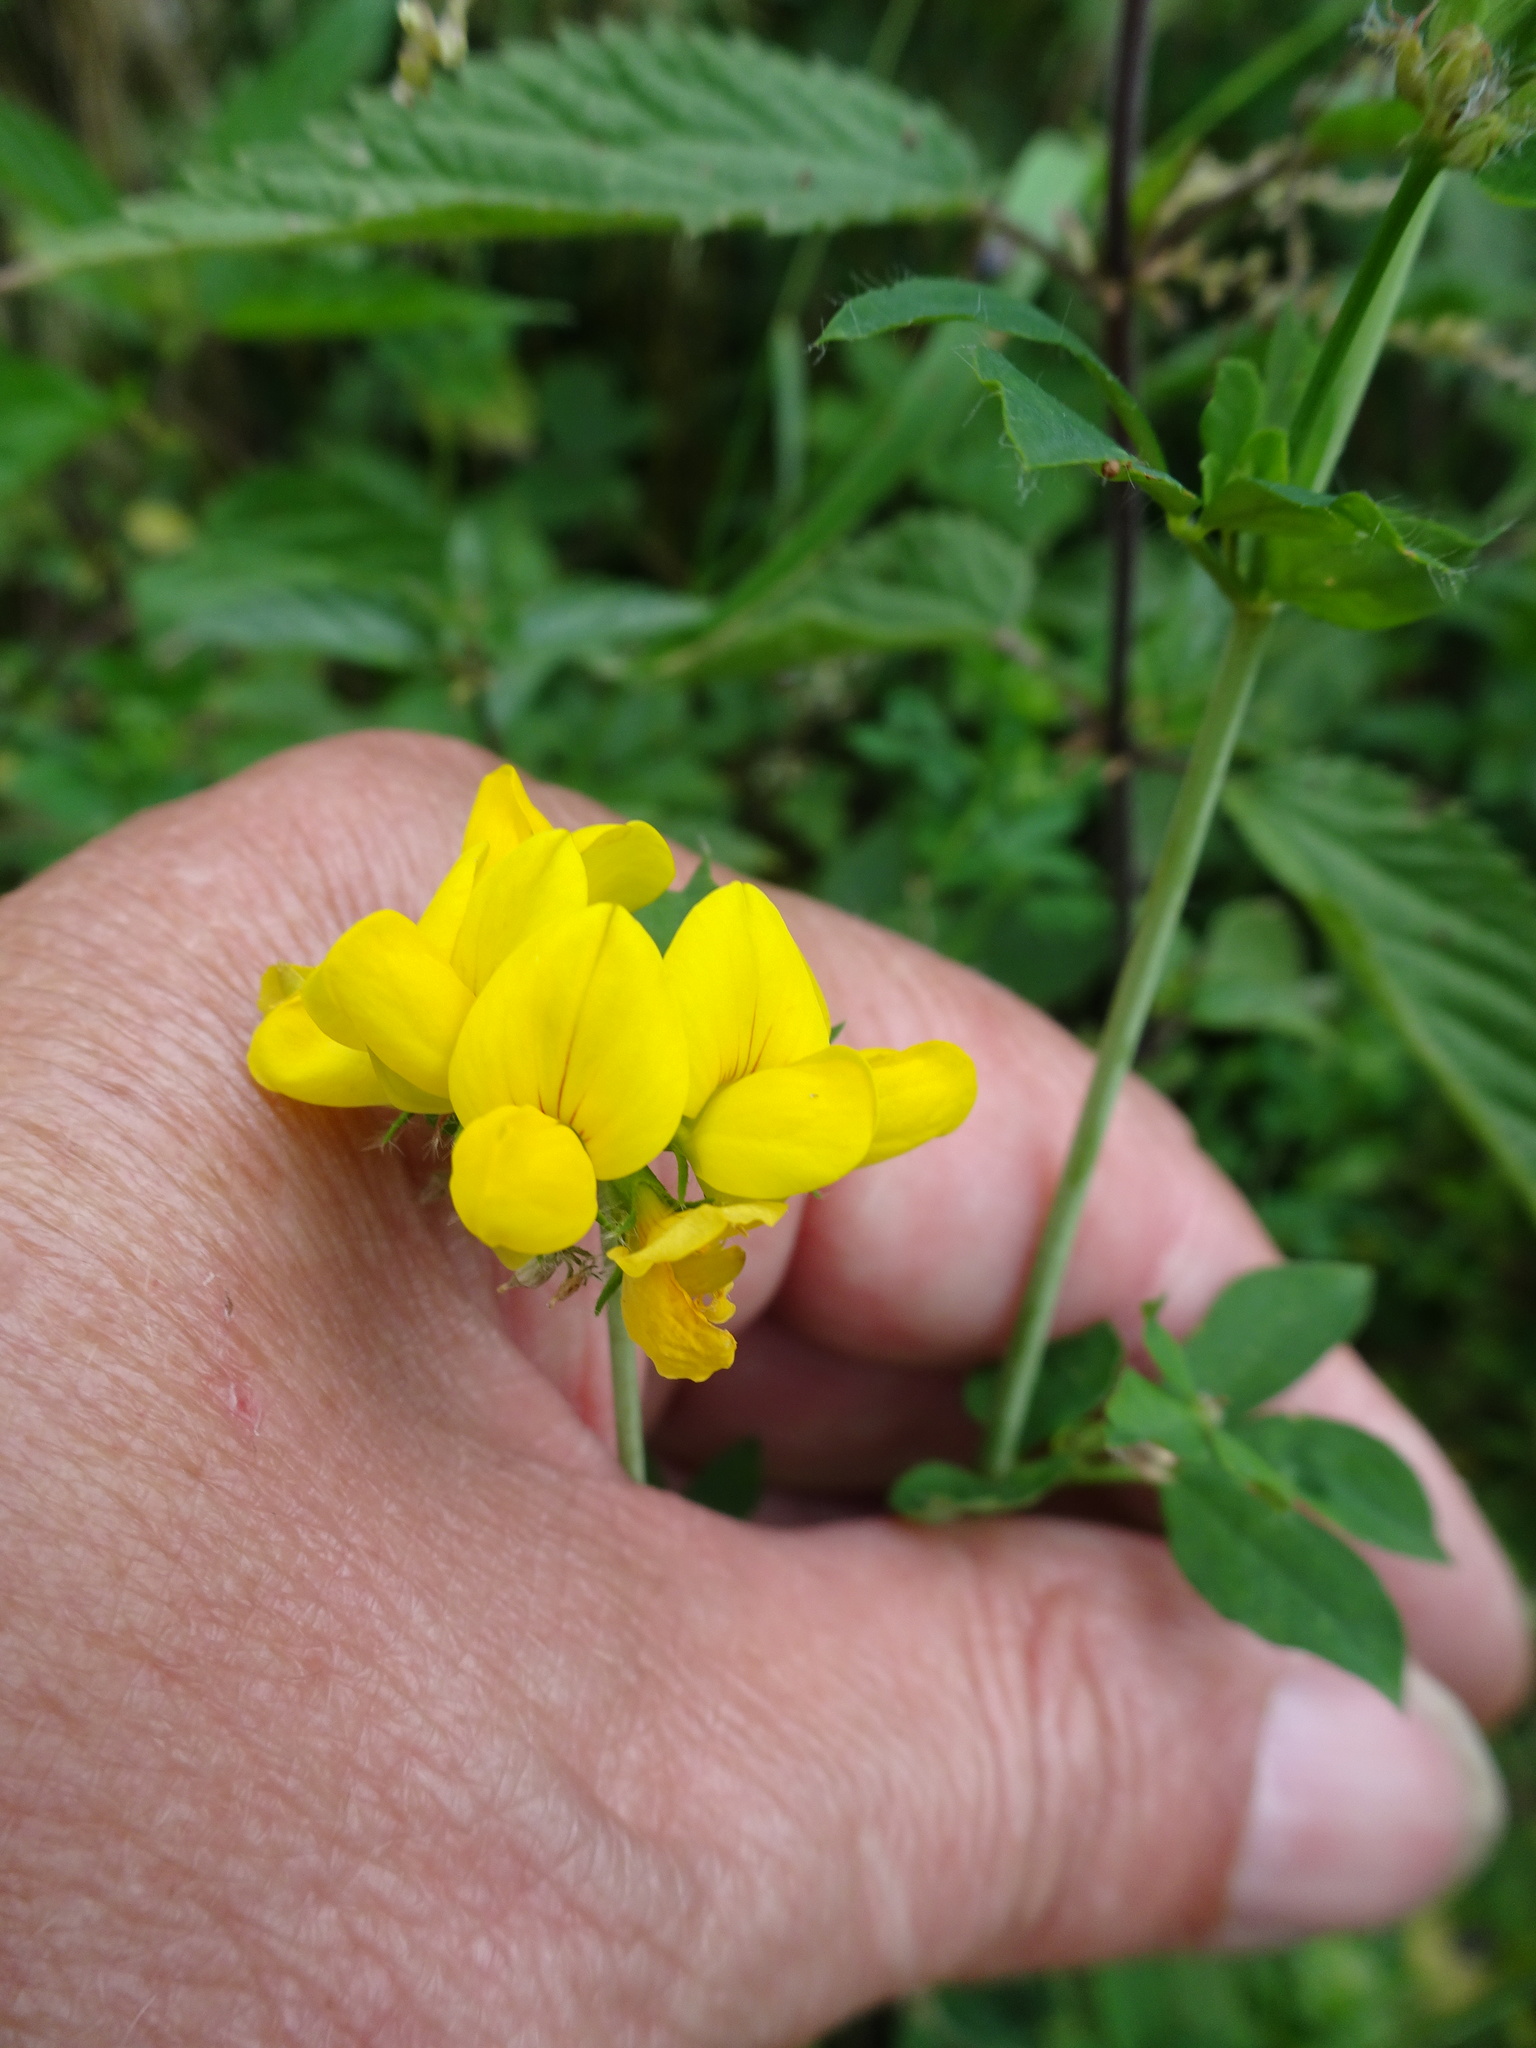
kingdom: Plantae
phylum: Tracheophyta
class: Magnoliopsida
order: Fabales
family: Fabaceae
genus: Lotus
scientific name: Lotus corniculatus
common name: Common bird's-foot-trefoil
